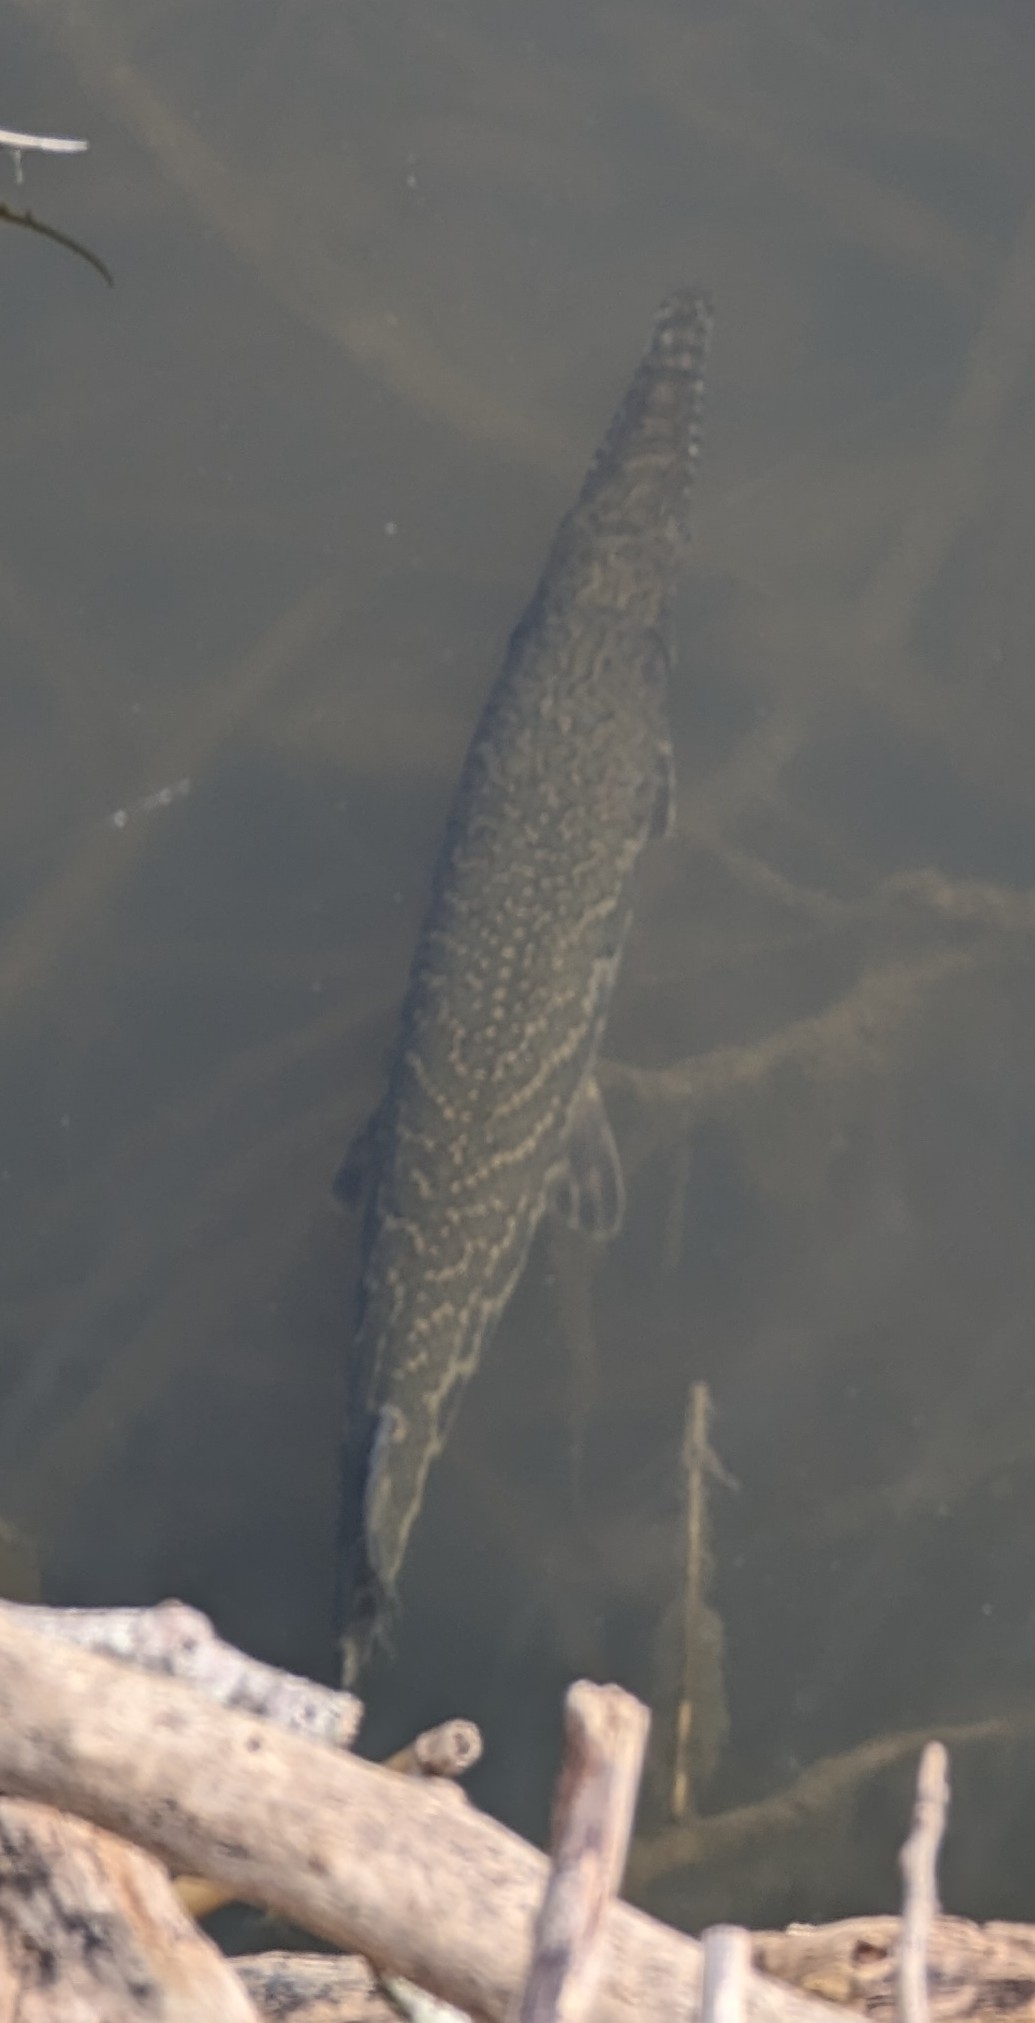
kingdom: Animalia
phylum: Chordata
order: Lepisosteiformes
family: Lepisosteidae
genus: Lepisosteus
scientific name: Lepisosteus oculatus
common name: Spotted gar
